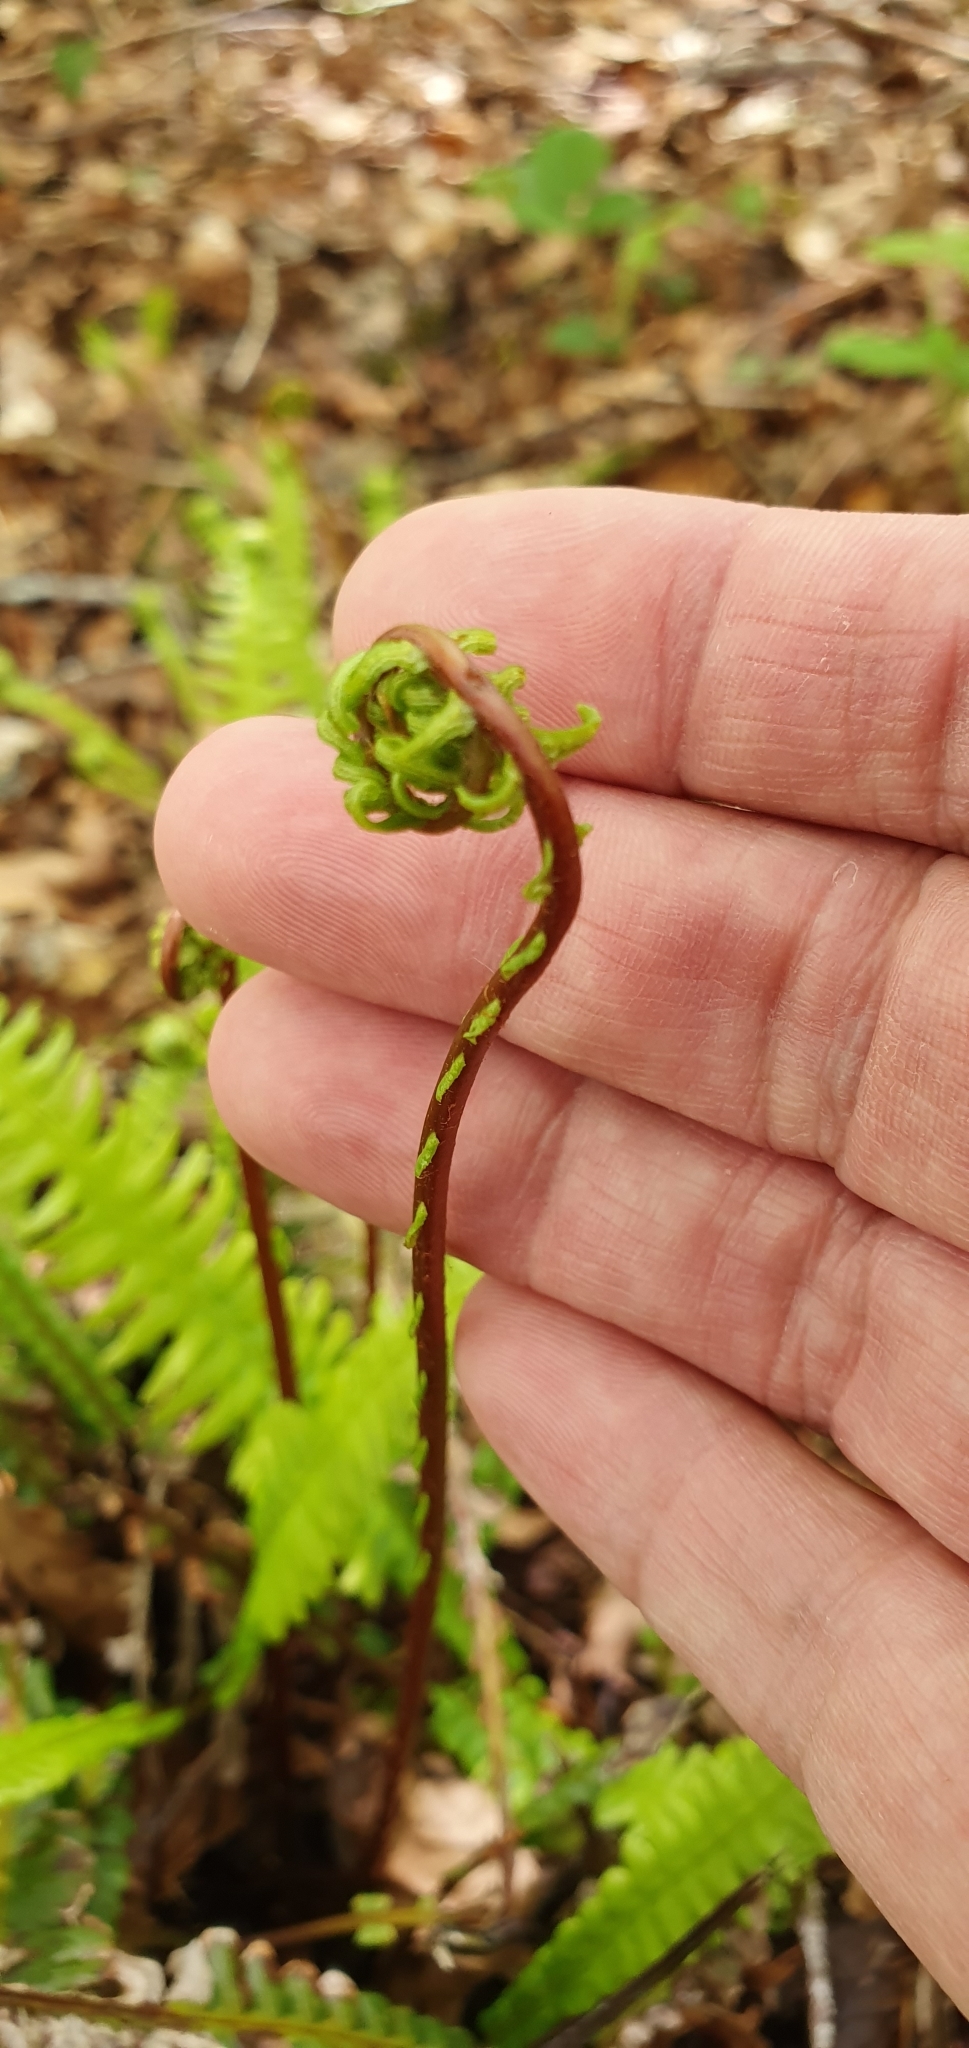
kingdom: Plantae
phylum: Tracheophyta
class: Polypodiopsida
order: Polypodiales
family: Blechnaceae
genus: Struthiopteris
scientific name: Struthiopteris spicant
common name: Deer fern
